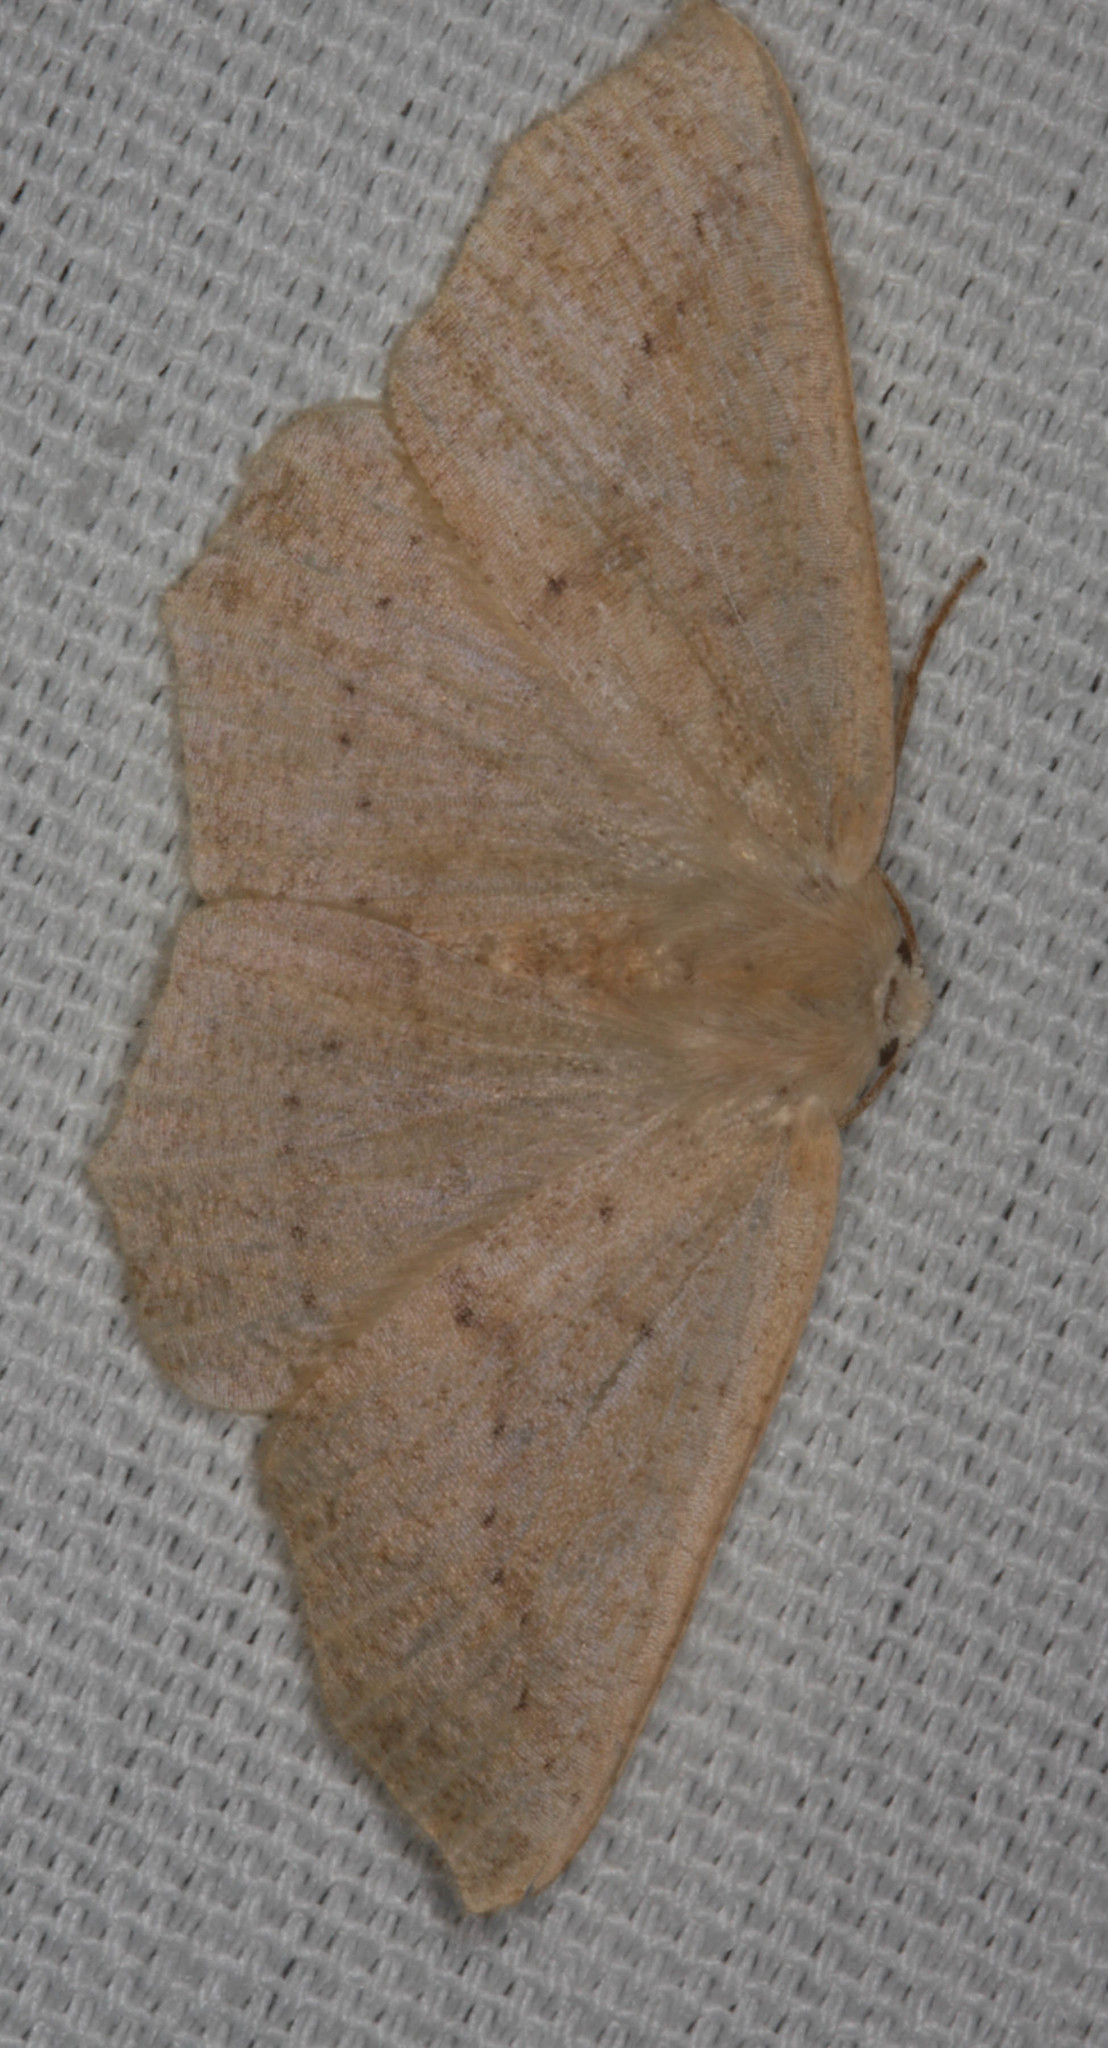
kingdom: Animalia
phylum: Arthropoda
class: Insecta
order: Lepidoptera
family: Geometridae
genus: Sabulodes
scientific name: Sabulodes aegrotata
